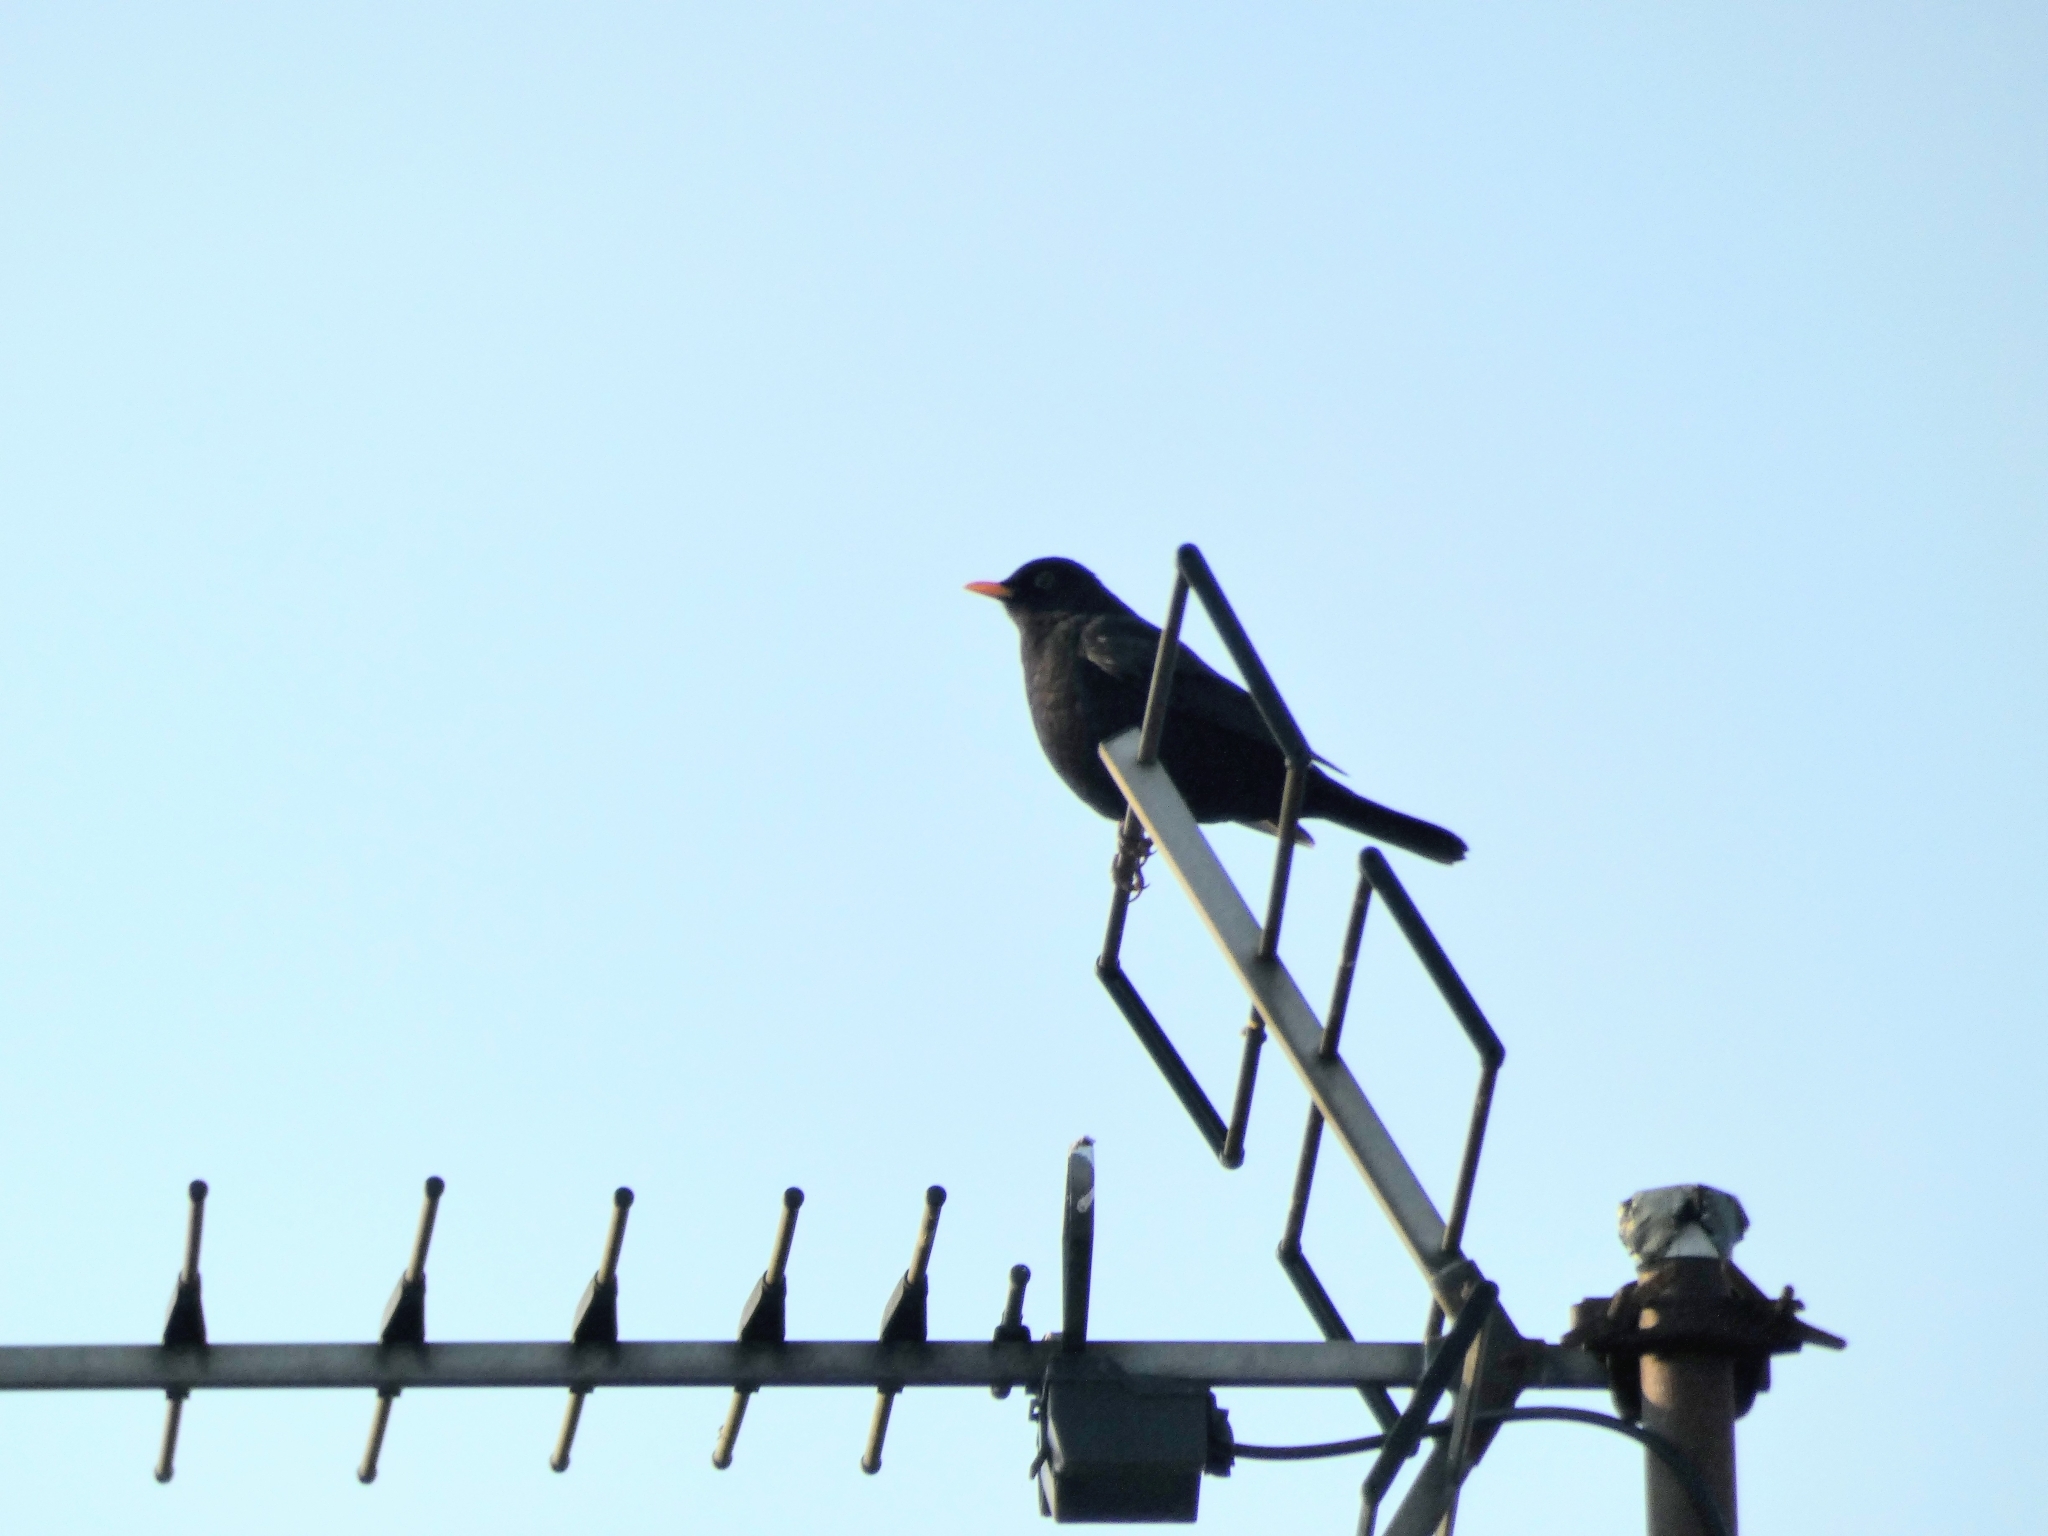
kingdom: Animalia
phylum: Chordata
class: Aves
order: Passeriformes
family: Turdidae
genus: Turdus
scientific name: Turdus merula
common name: Common blackbird
